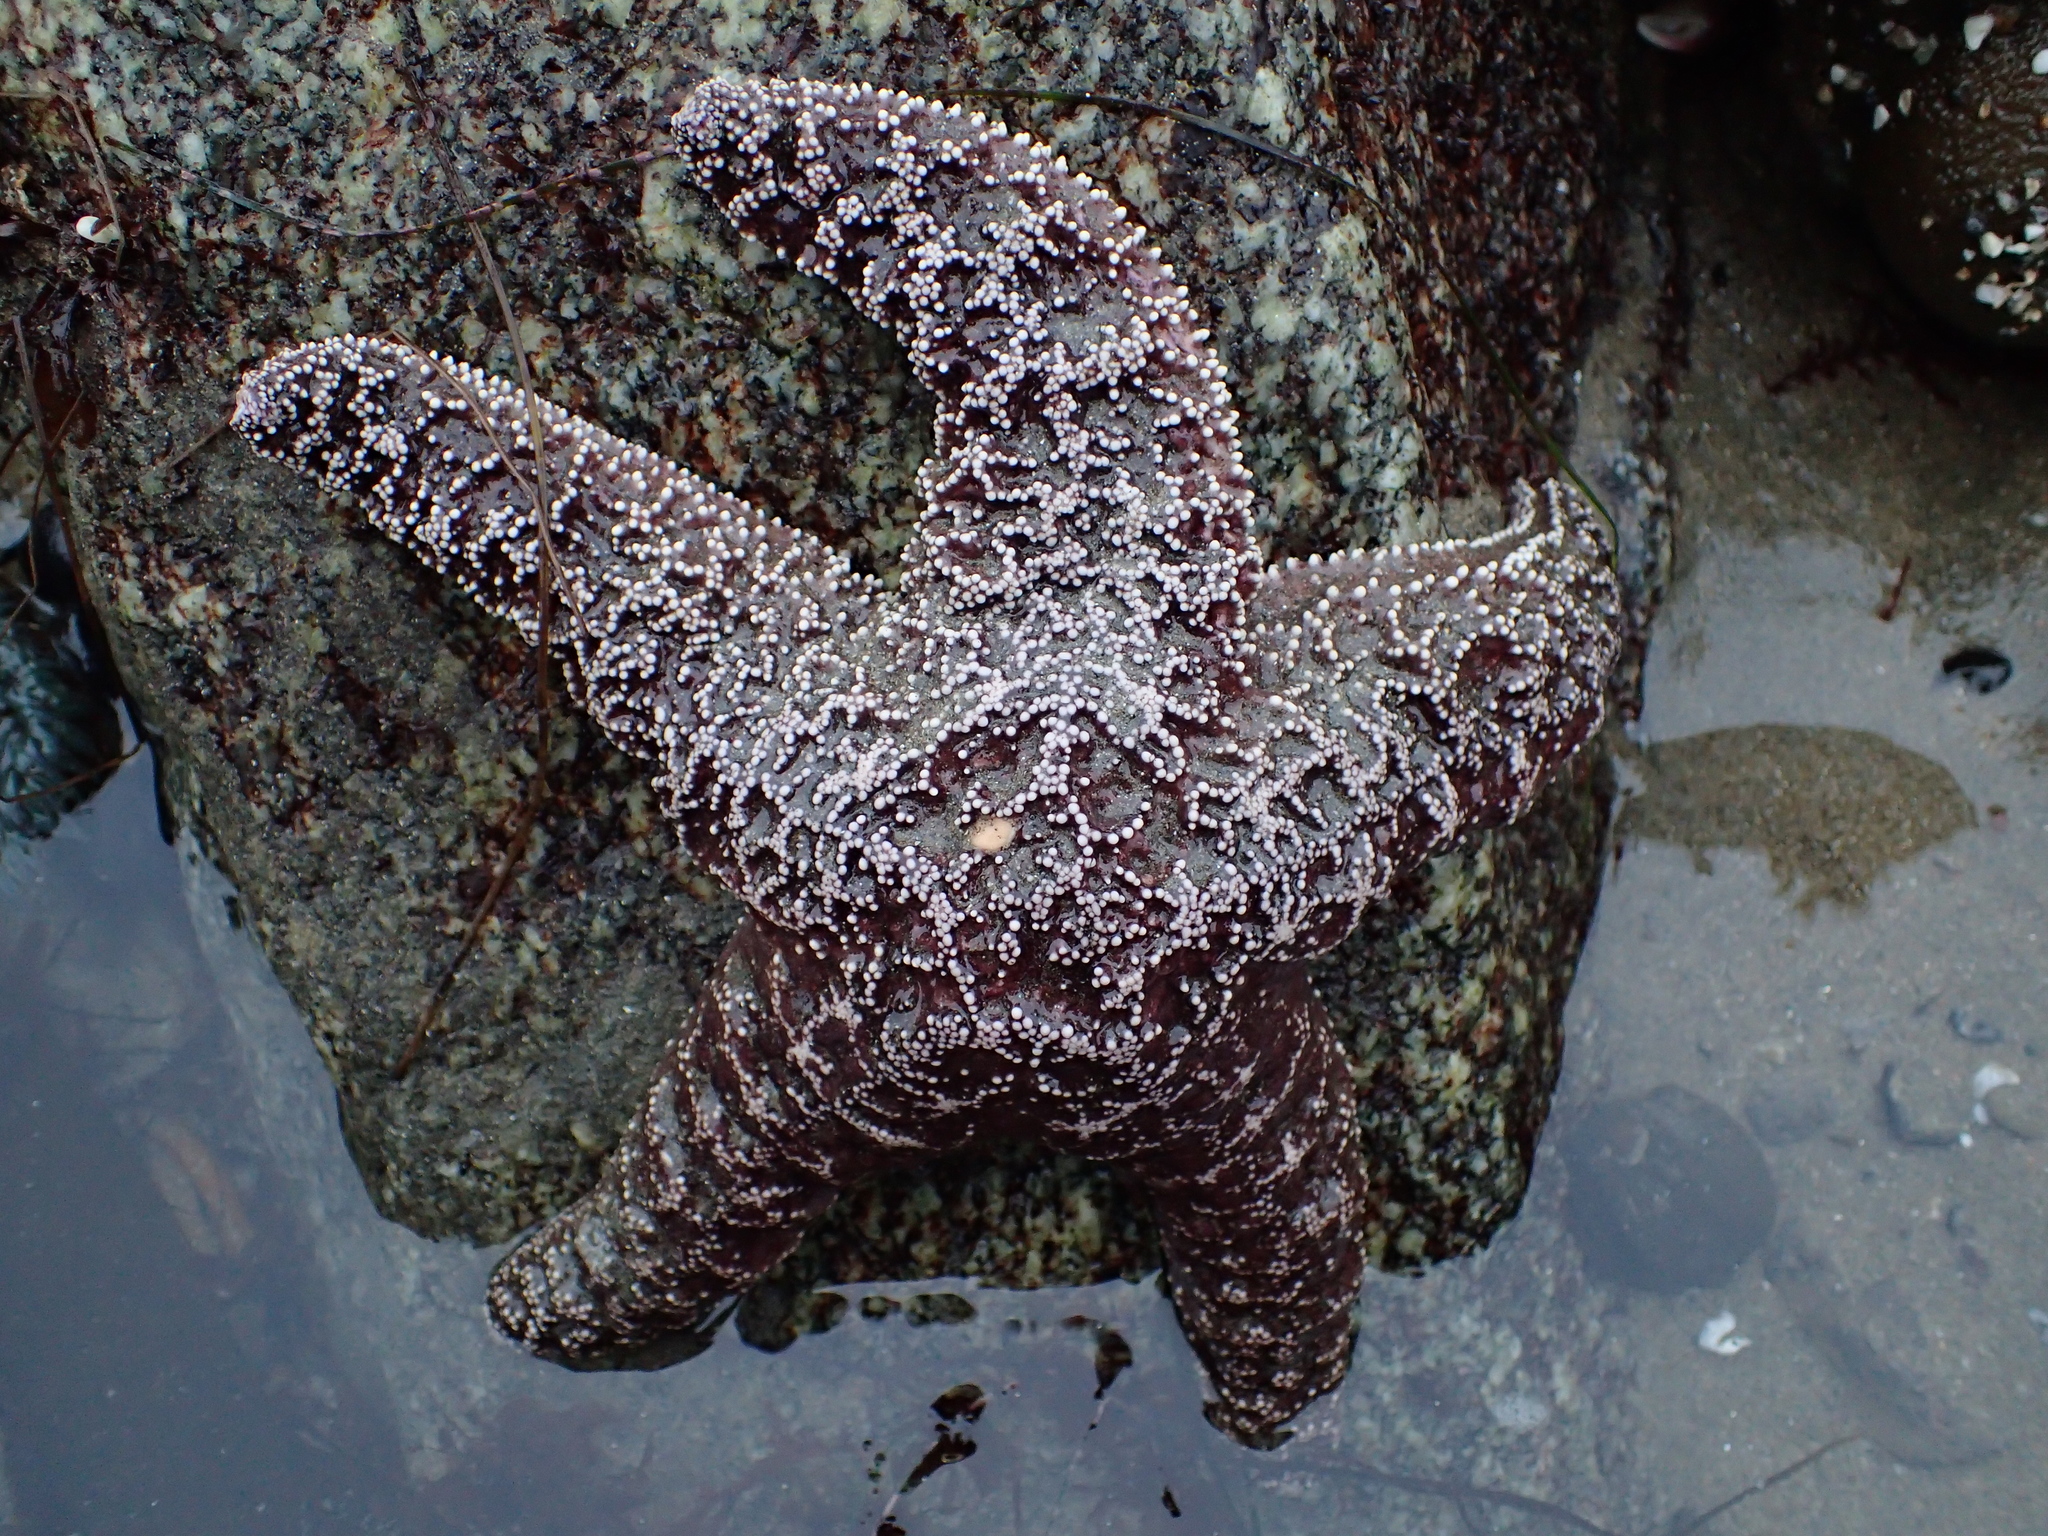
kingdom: Animalia
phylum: Echinodermata
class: Asteroidea
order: Forcipulatida
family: Asteriidae
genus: Pisaster
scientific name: Pisaster ochraceus
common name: Ochre stars
